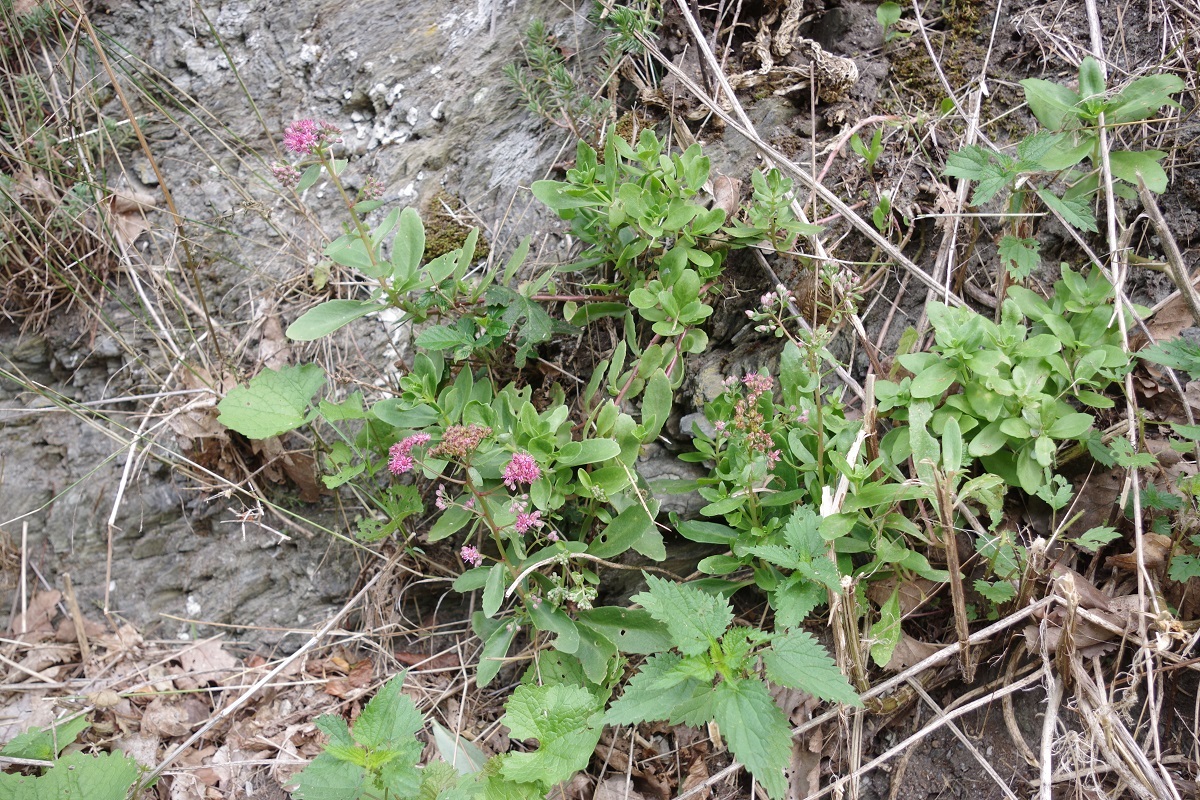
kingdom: Plantae
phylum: Tracheophyta
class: Magnoliopsida
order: Saxifragales
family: Crassulaceae
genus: Hylotelephium
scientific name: Hylotelephium telephium
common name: Live-forever
